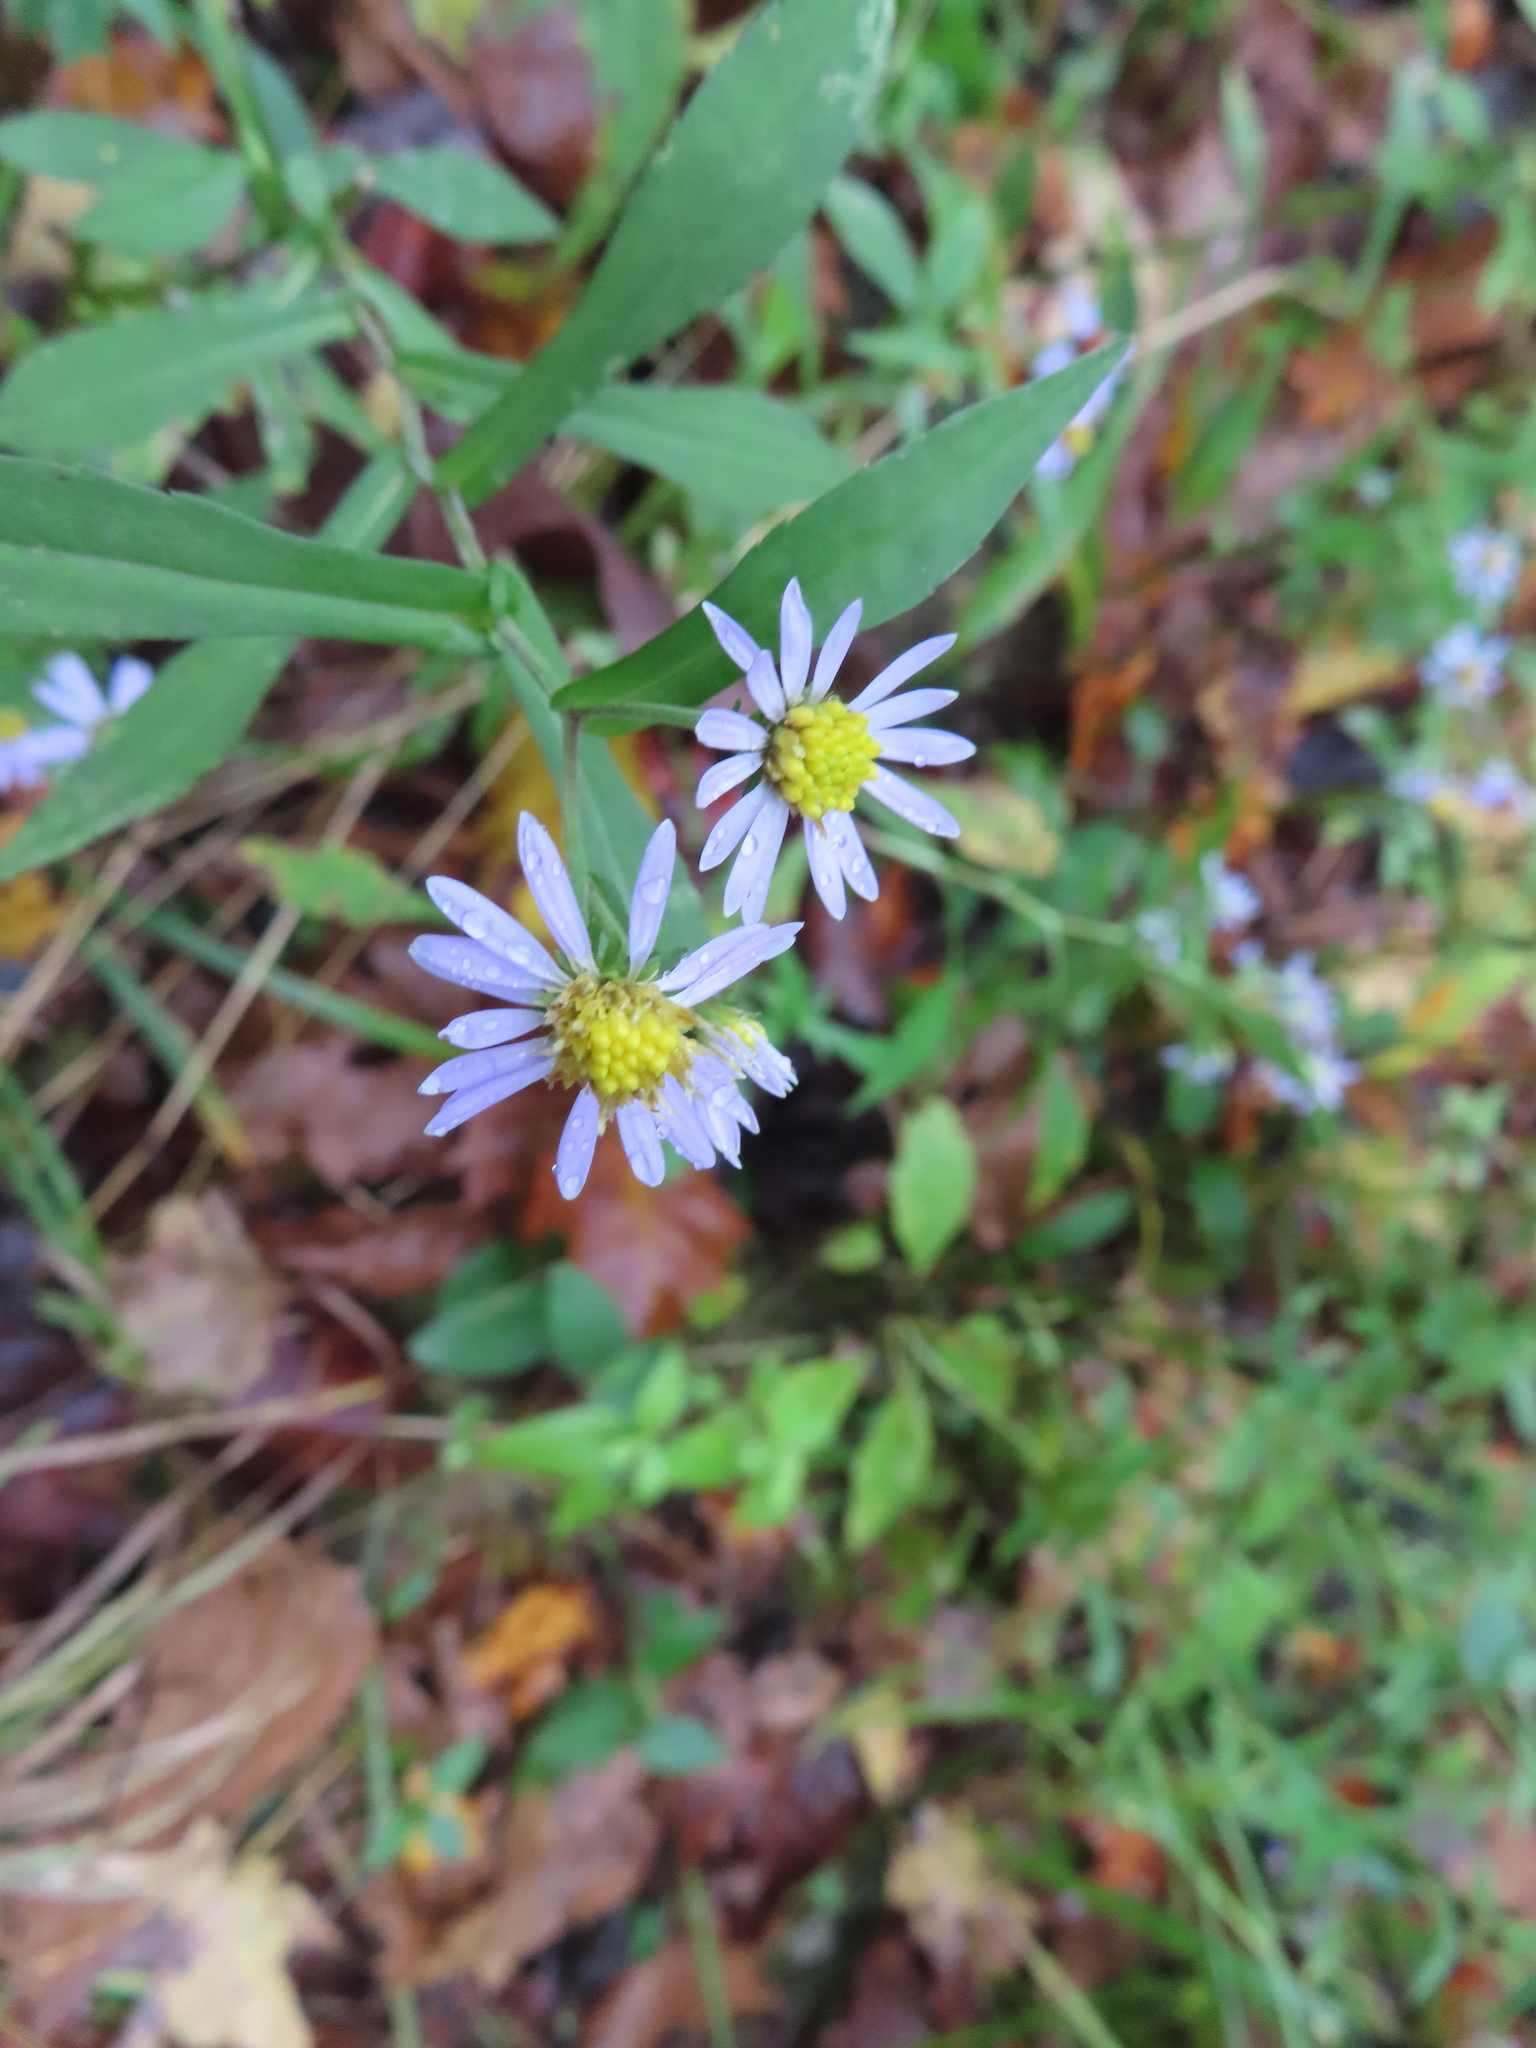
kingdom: Plantae
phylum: Tracheophyta
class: Magnoliopsida
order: Asterales
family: Asteraceae
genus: Symphyotrichum
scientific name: Symphyotrichum prenanthoides
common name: Crooked-stem aster
